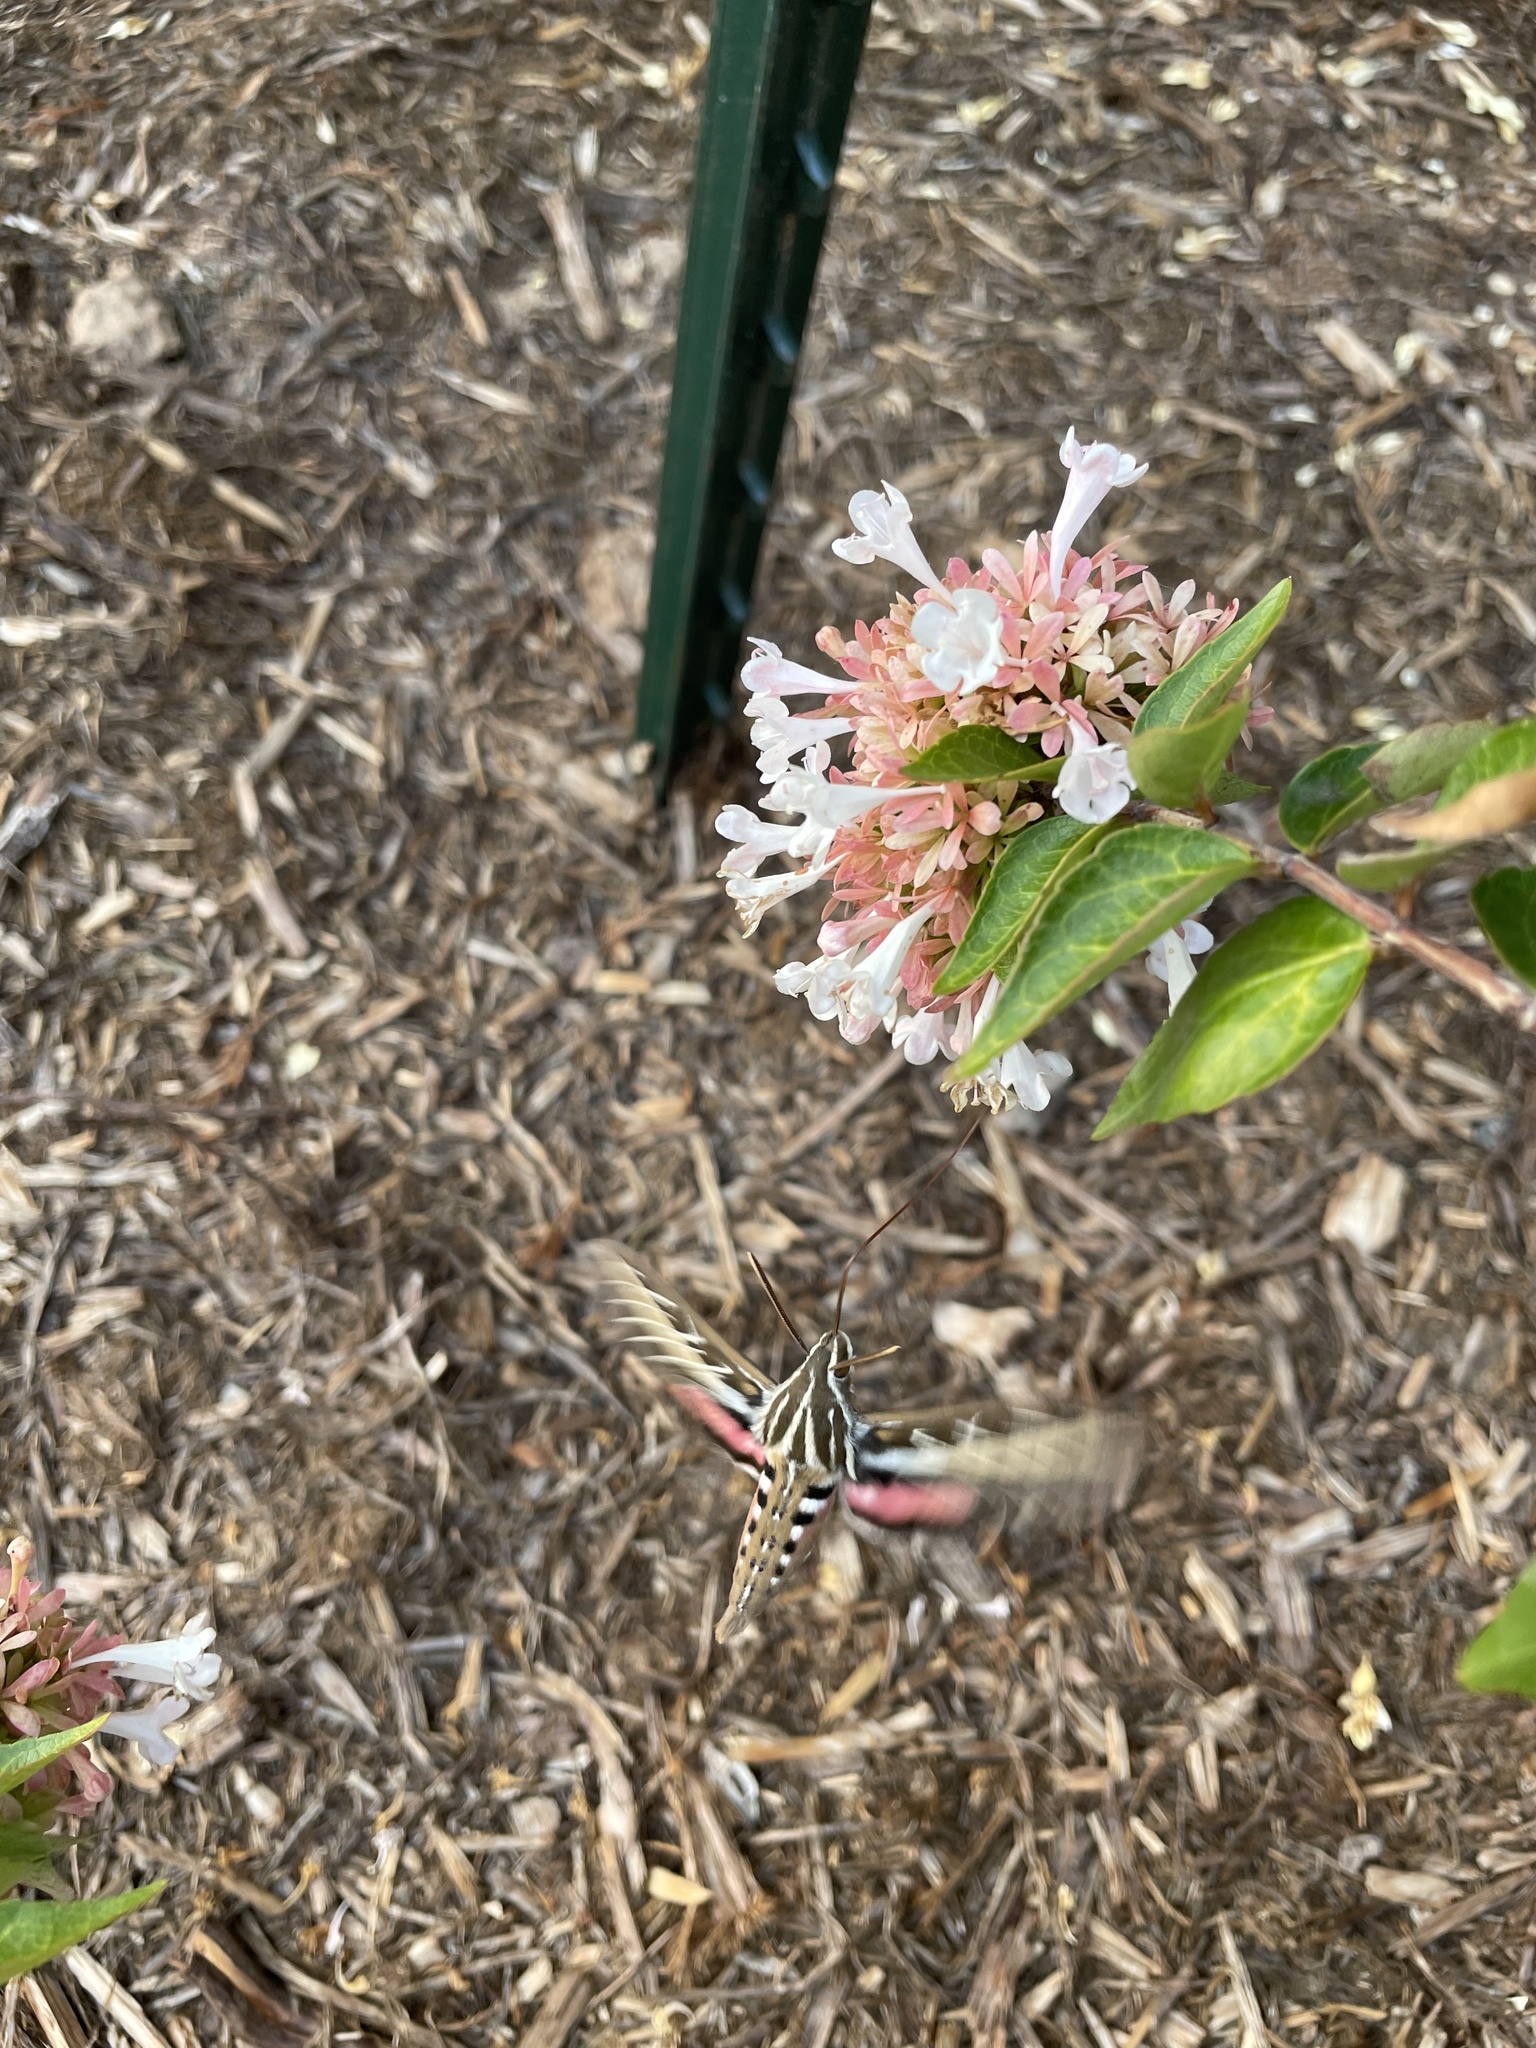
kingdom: Animalia
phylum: Arthropoda
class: Insecta
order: Lepidoptera
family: Sphingidae
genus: Hyles
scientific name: Hyles lineata
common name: White-lined sphinx
